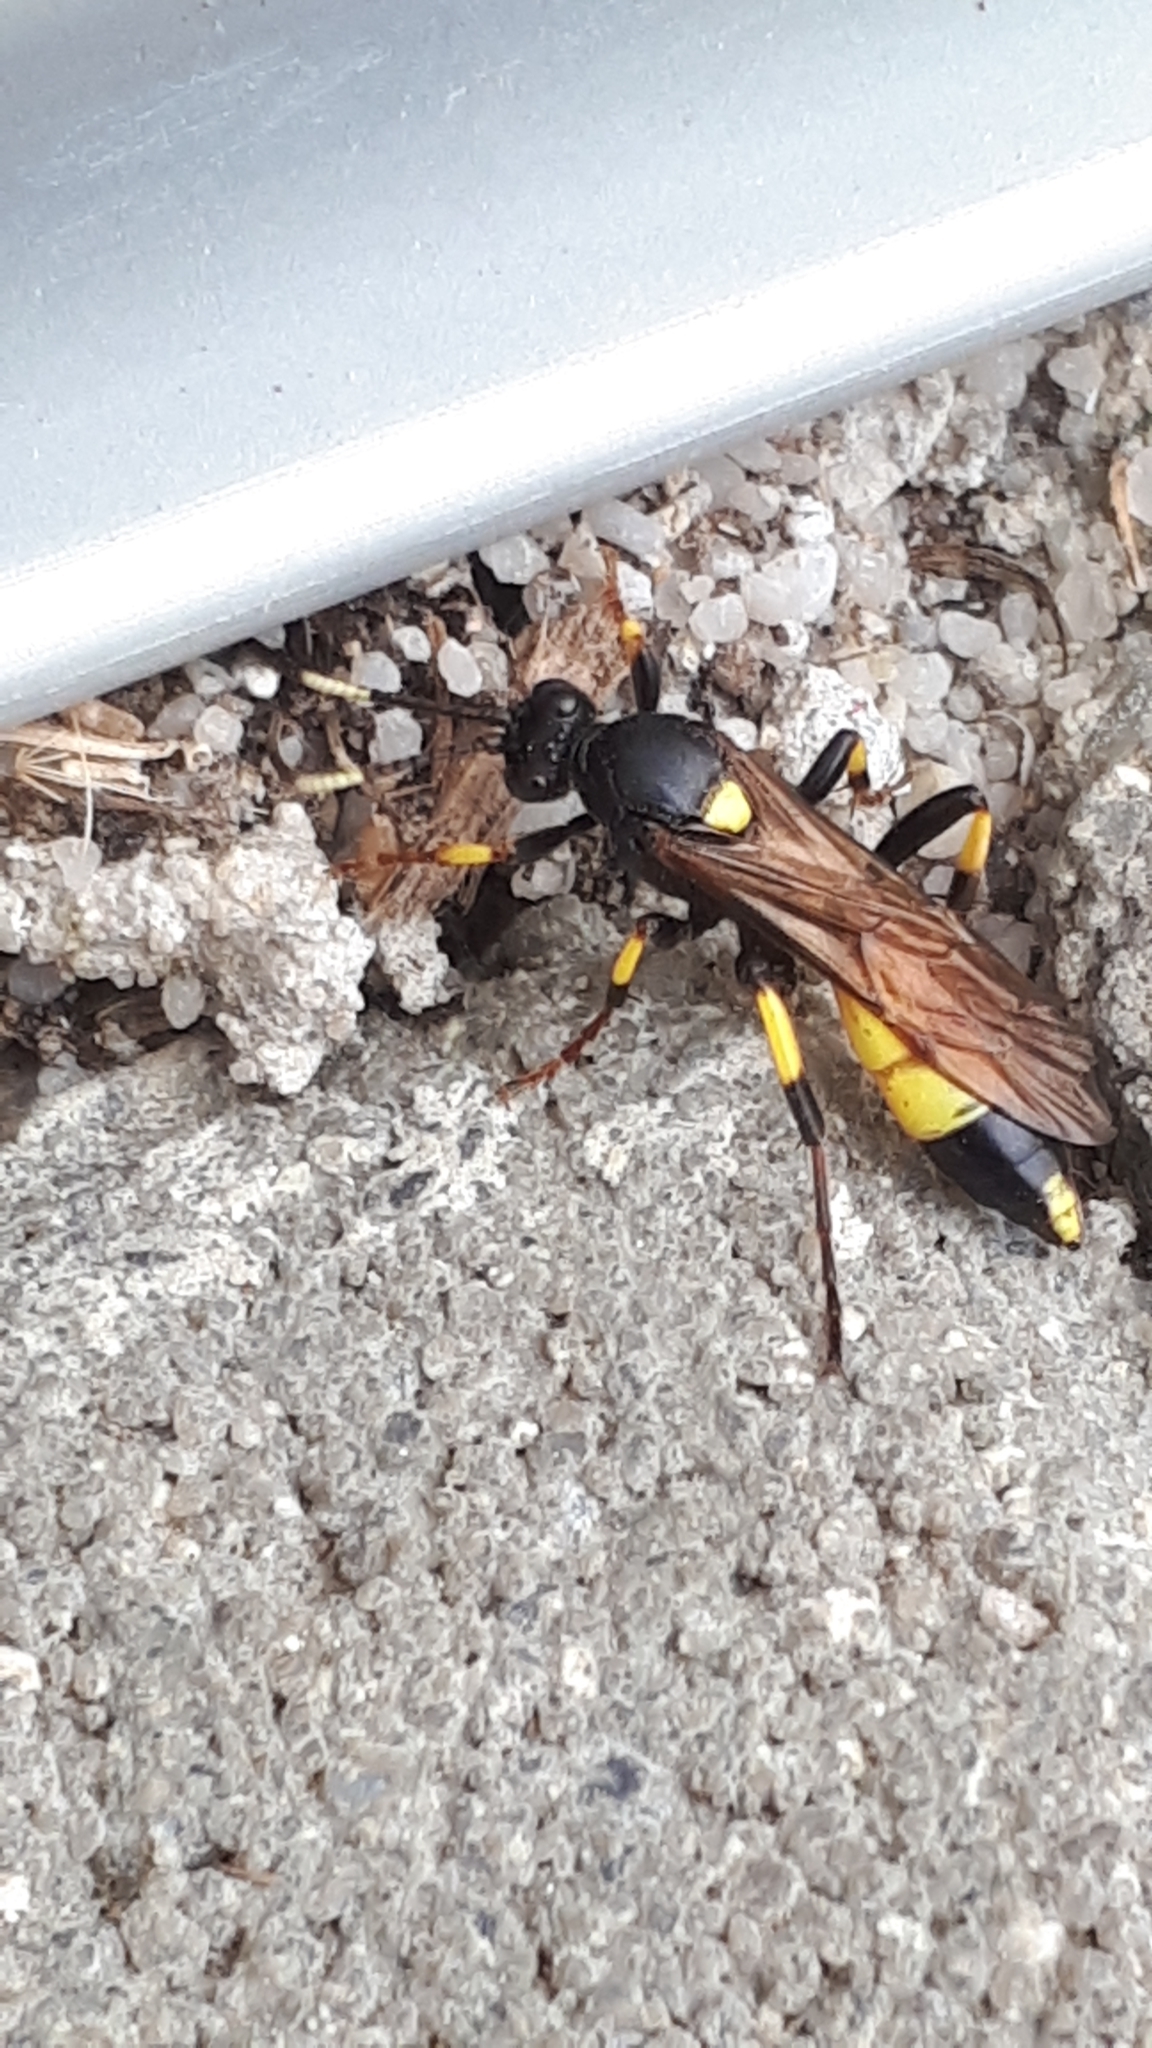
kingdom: Animalia
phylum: Arthropoda
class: Insecta
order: Hymenoptera
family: Ichneumonidae
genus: Ichneumon
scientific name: Ichneumon stramentor
